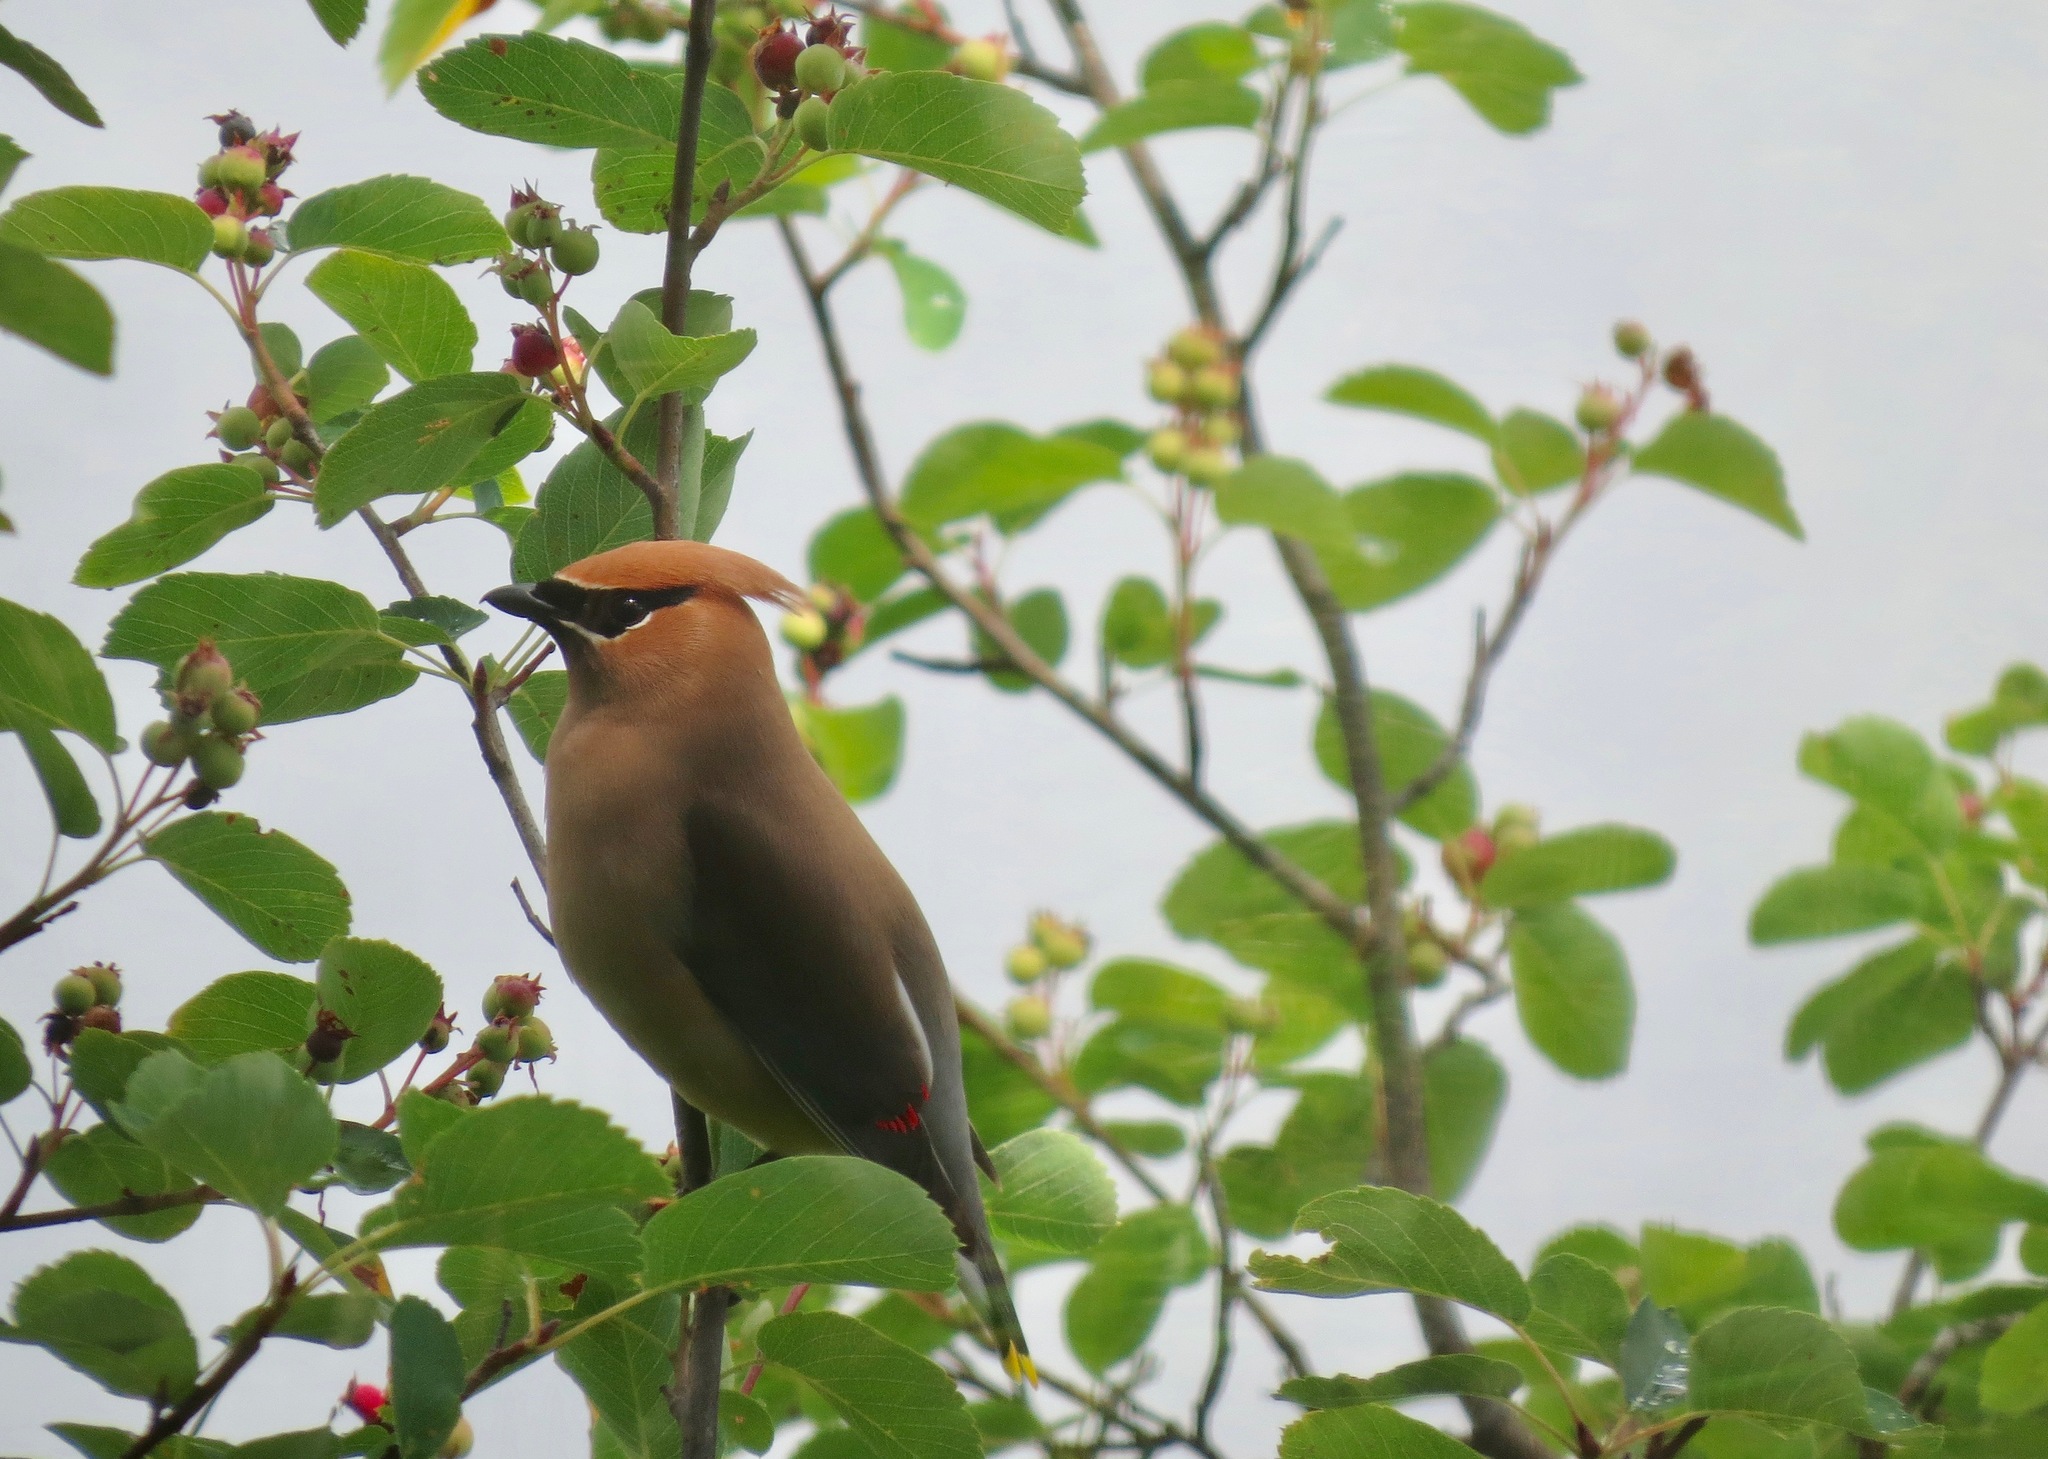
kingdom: Animalia
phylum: Chordata
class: Aves
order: Passeriformes
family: Bombycillidae
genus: Bombycilla
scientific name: Bombycilla cedrorum
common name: Cedar waxwing
